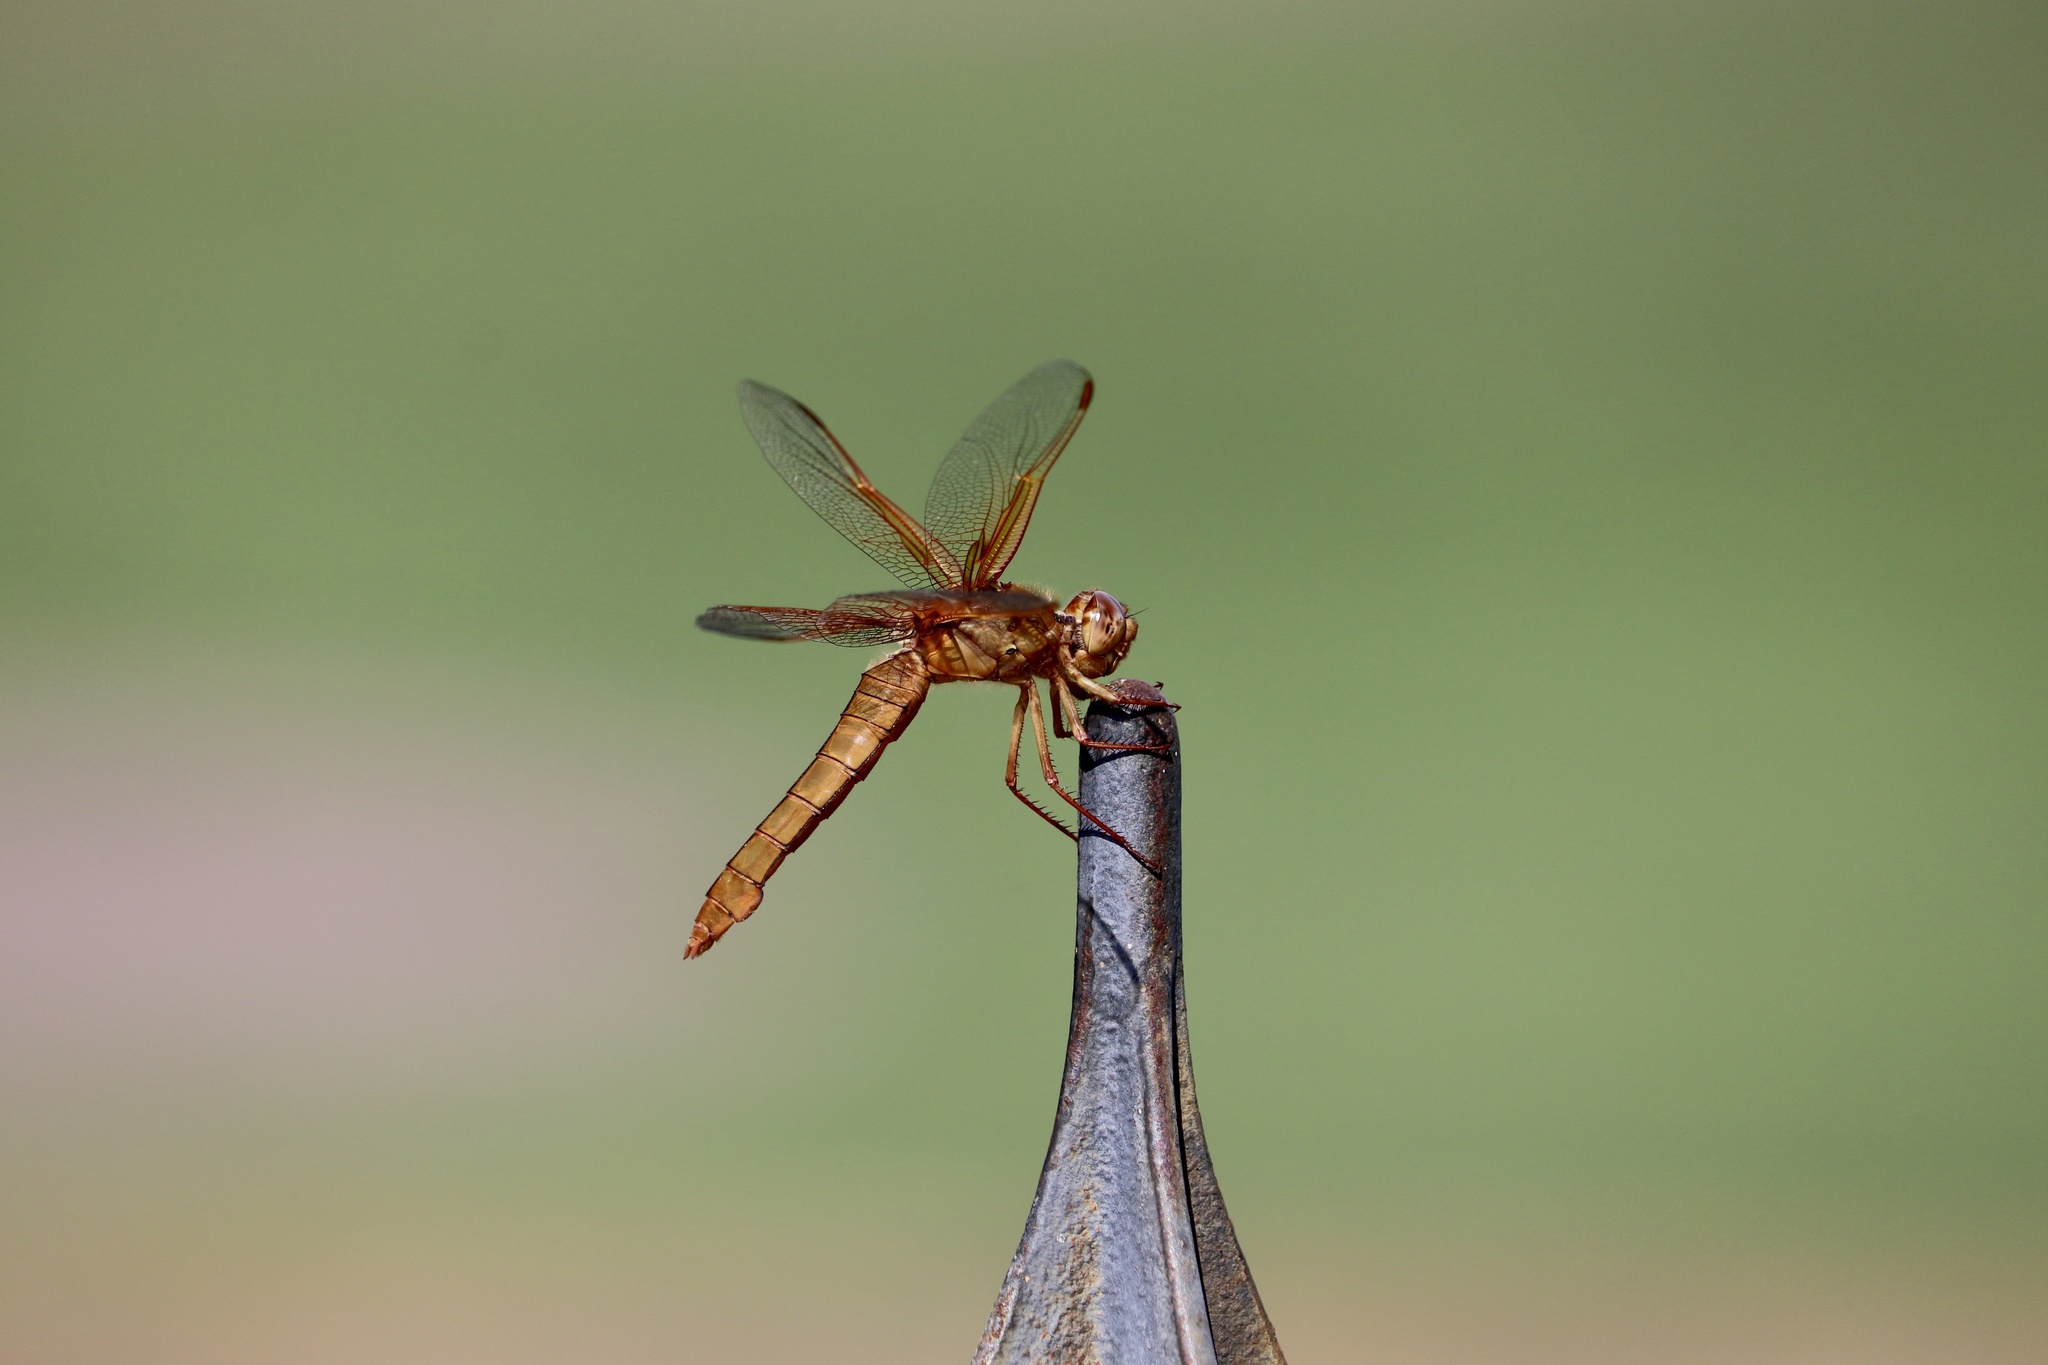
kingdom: Animalia
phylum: Arthropoda
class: Insecta
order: Odonata
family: Libellulidae
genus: Libellula
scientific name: Libellula saturata
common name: Flame skimmer
